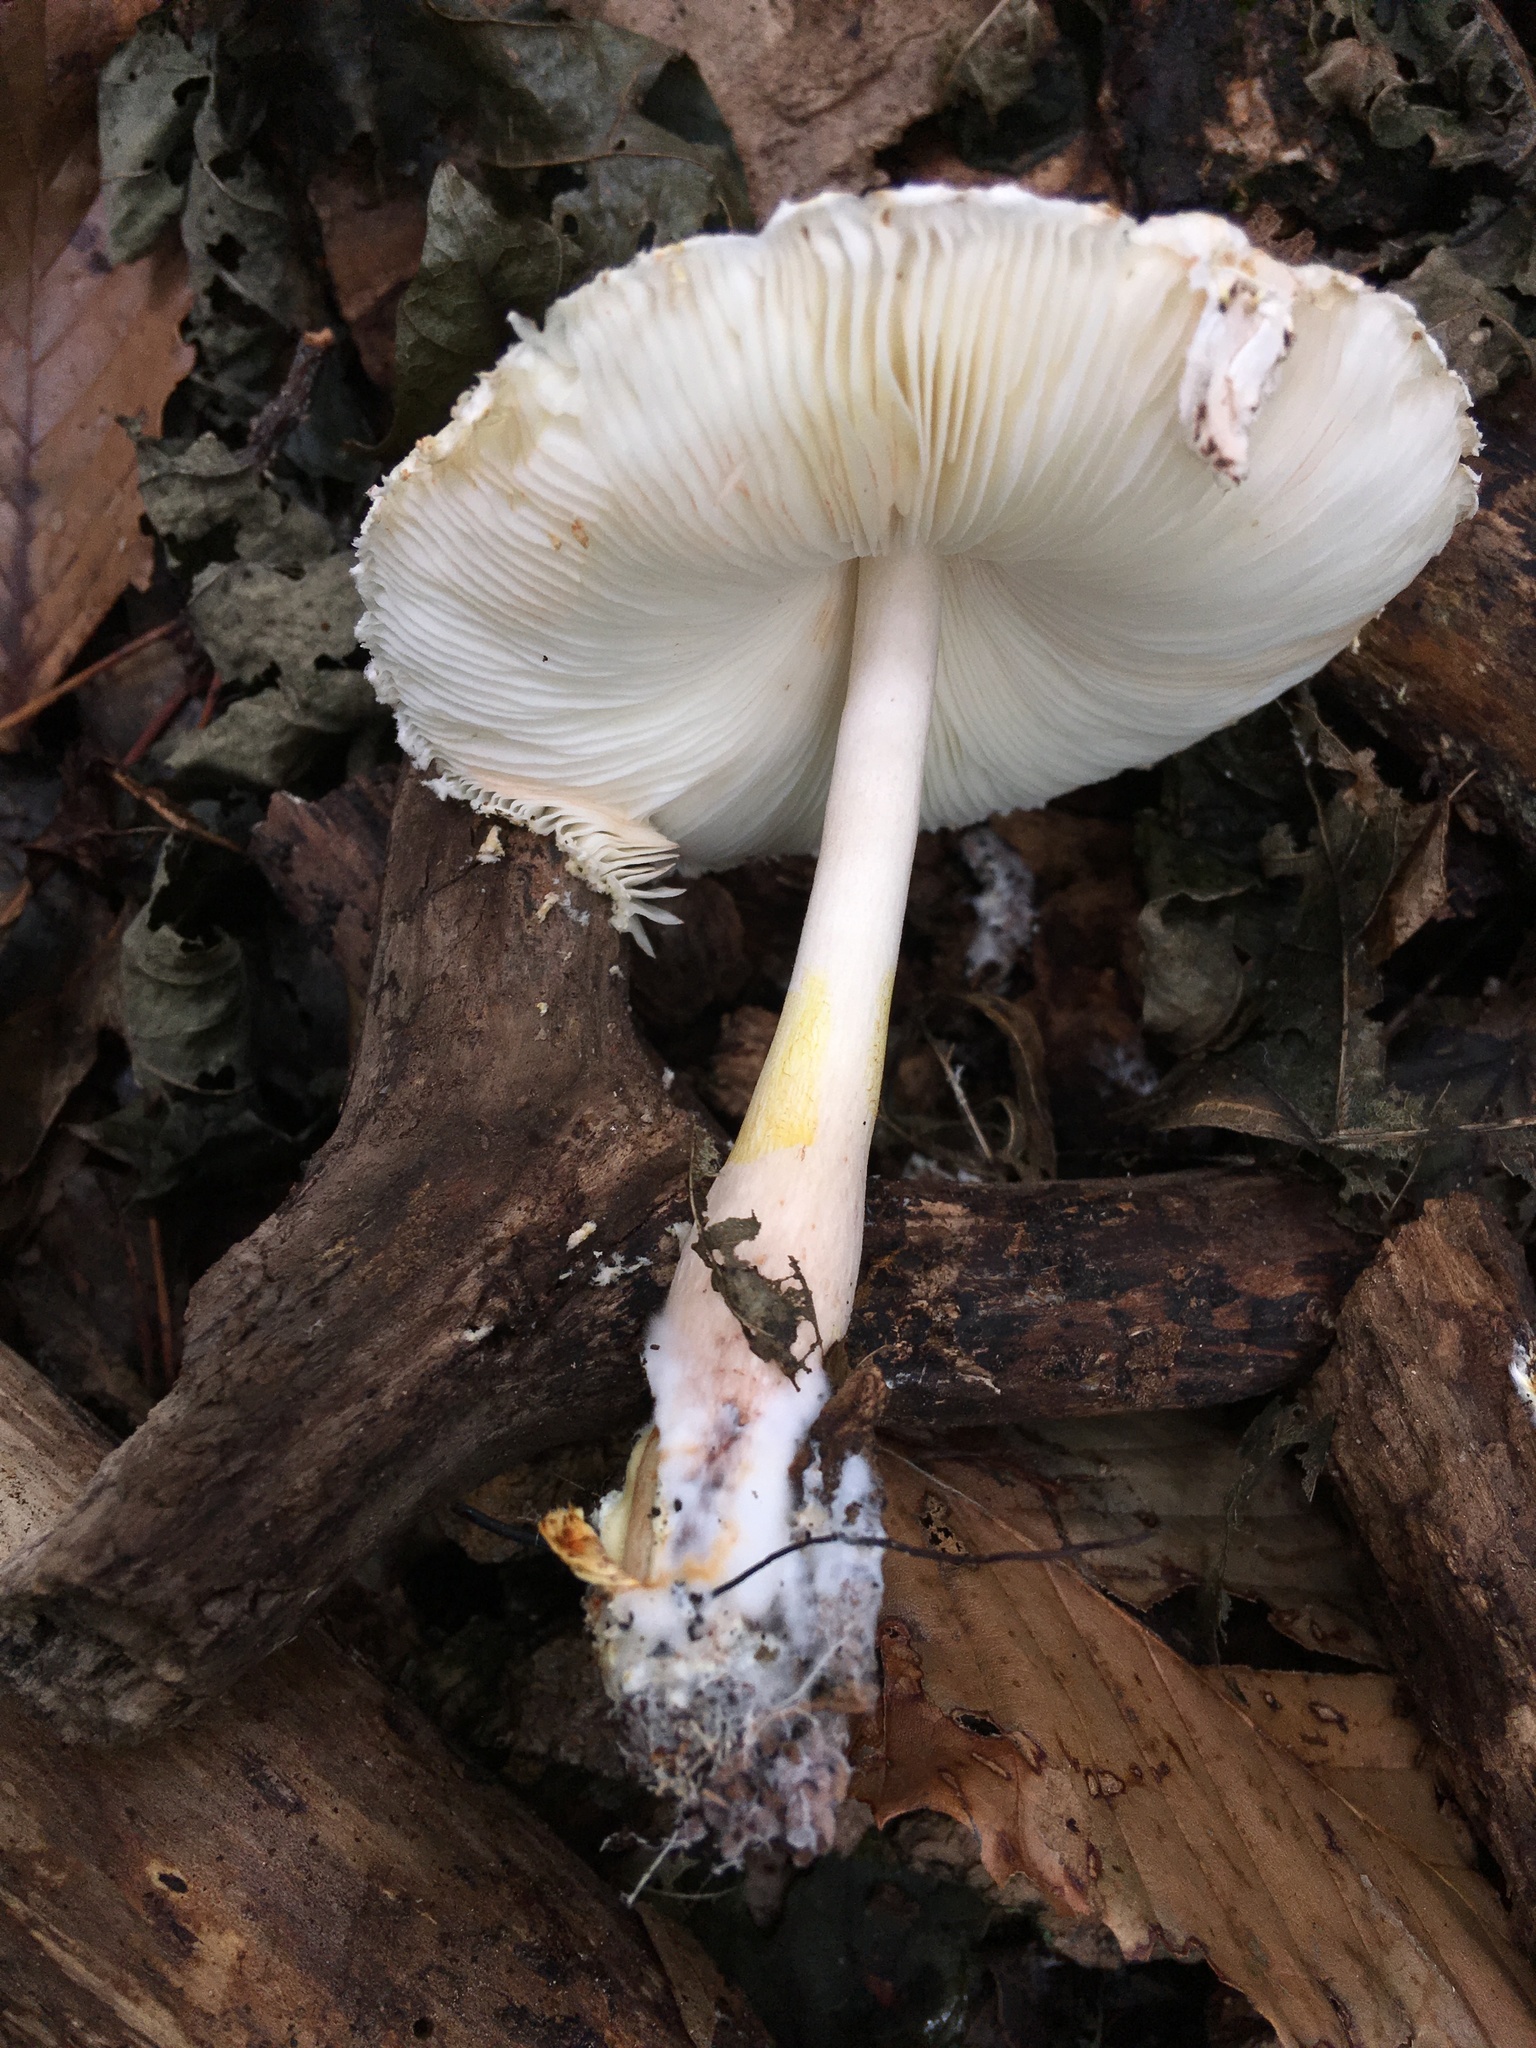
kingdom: Fungi
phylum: Basidiomycota
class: Agaricomycetes
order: Agaricales
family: Agaricaceae
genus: Leucoagaricus
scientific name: Leucoagaricus americanus
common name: Reddening lepiota
